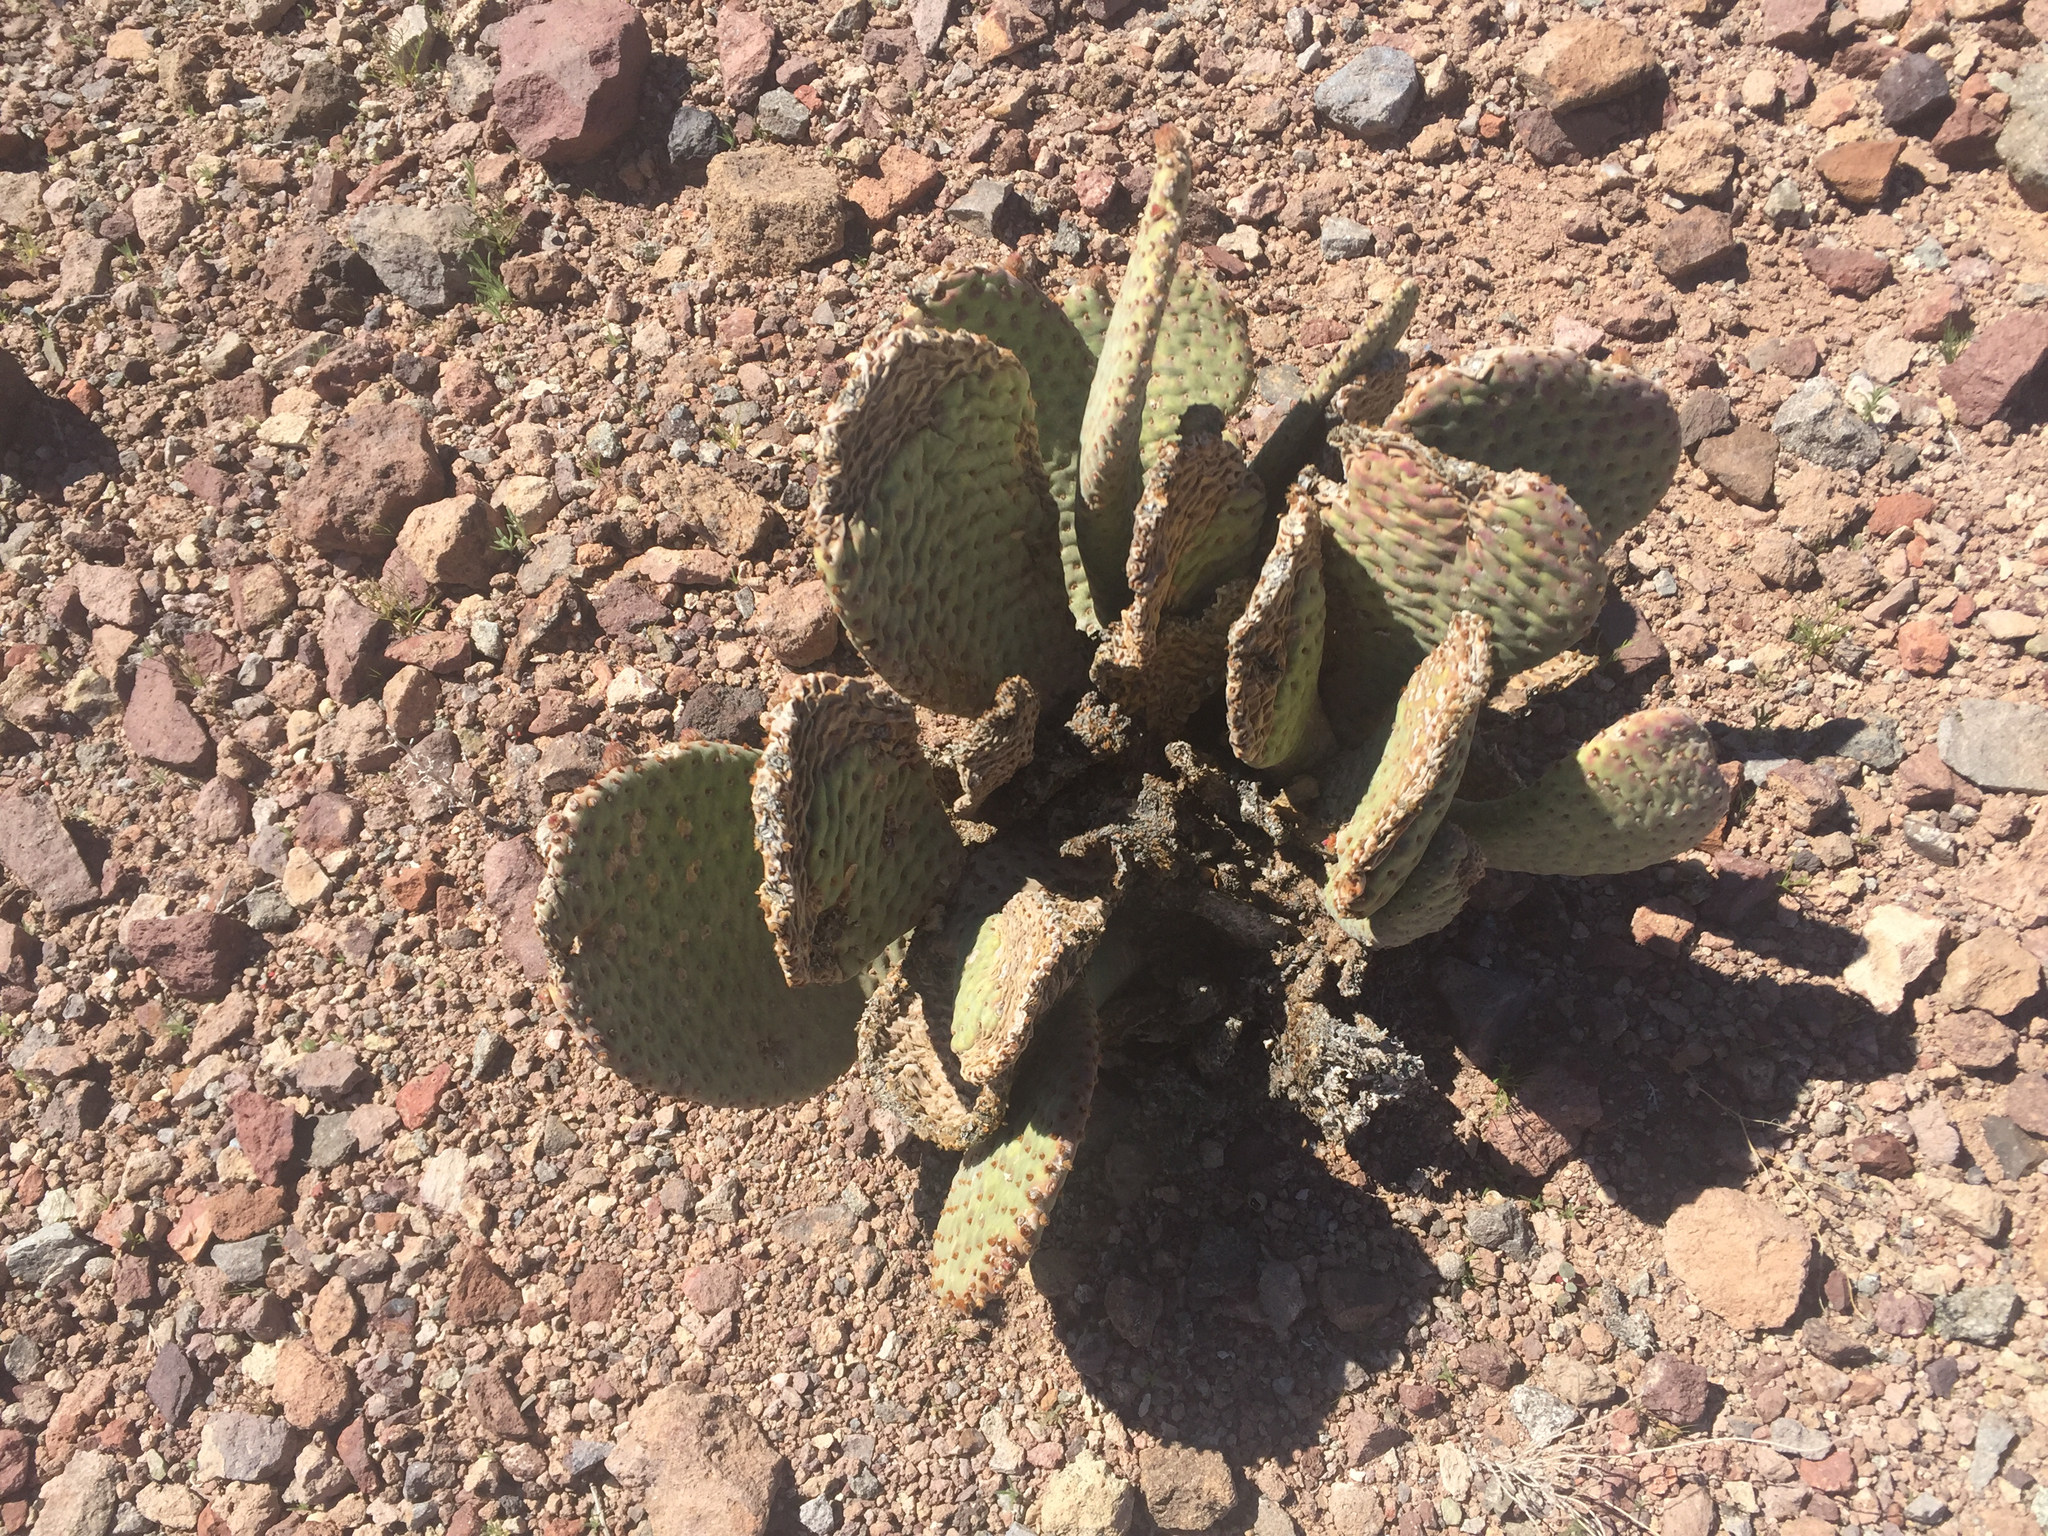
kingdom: Plantae
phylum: Tracheophyta
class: Magnoliopsida
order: Caryophyllales
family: Cactaceae
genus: Opuntia
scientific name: Opuntia basilaris
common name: Beavertail prickly-pear
